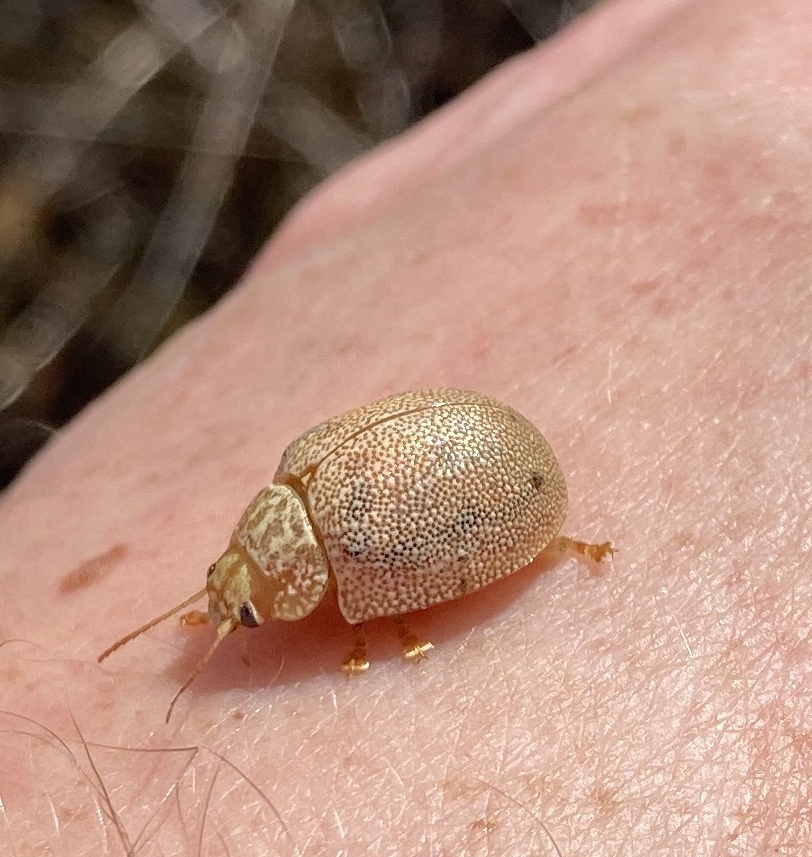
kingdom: Animalia
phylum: Arthropoda
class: Insecta
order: Coleoptera
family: Chrysomelidae
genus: Paropsis
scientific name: Paropsis
